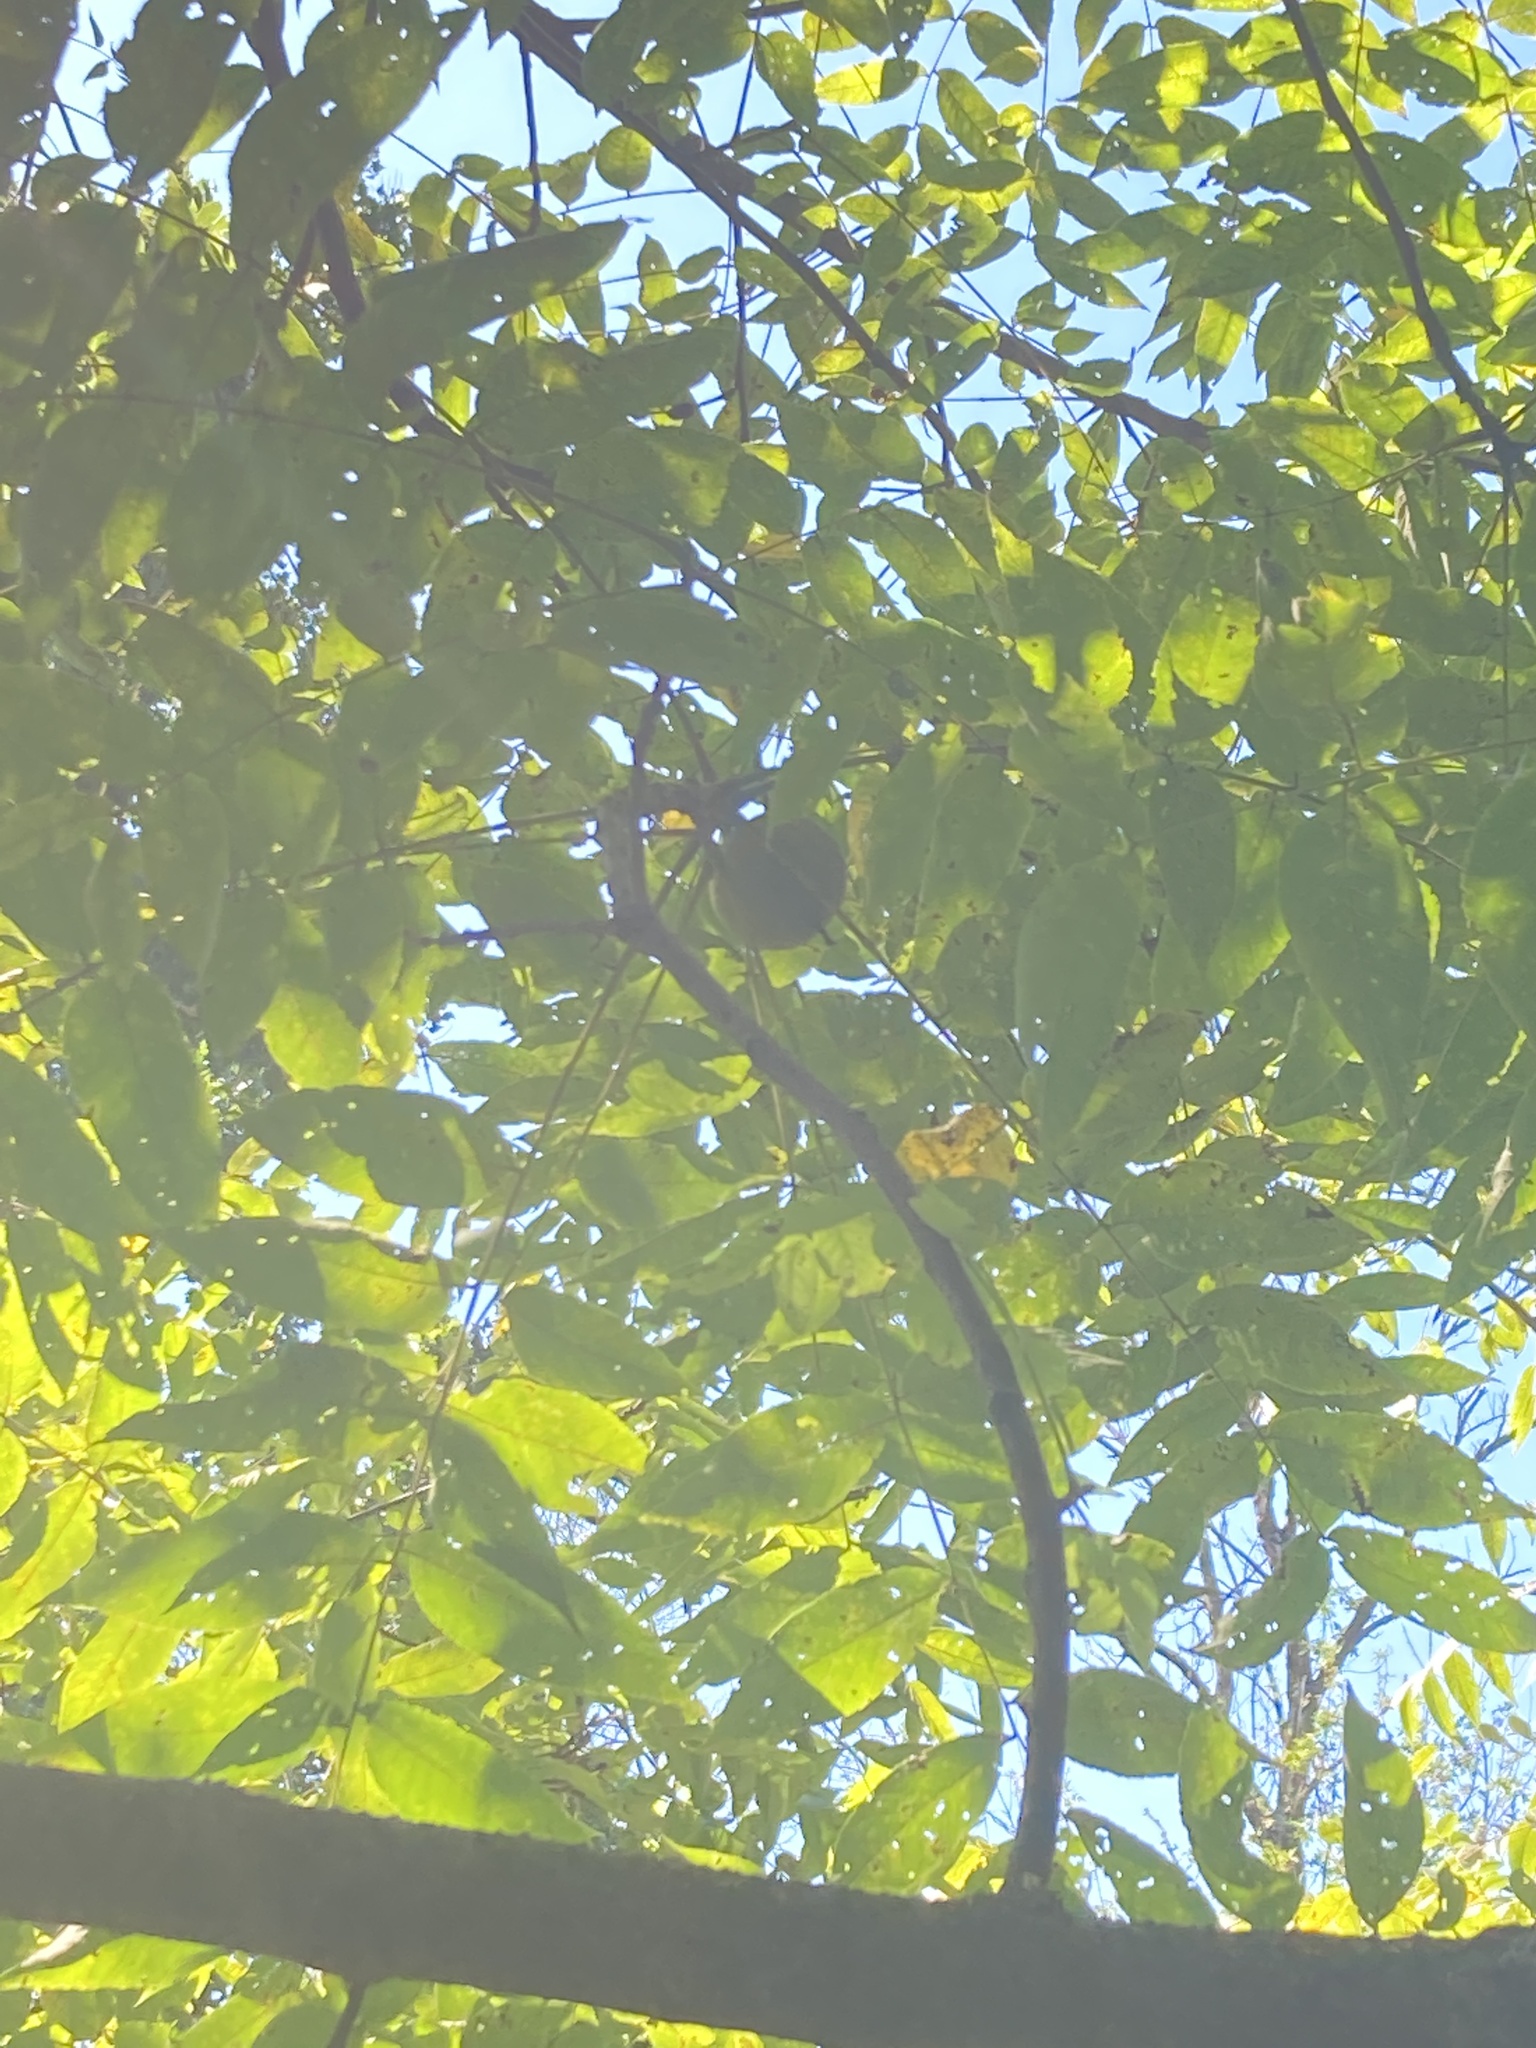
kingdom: Plantae
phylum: Tracheophyta
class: Magnoliopsida
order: Fagales
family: Juglandaceae
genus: Juglans
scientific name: Juglans nigra
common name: Black walnut
